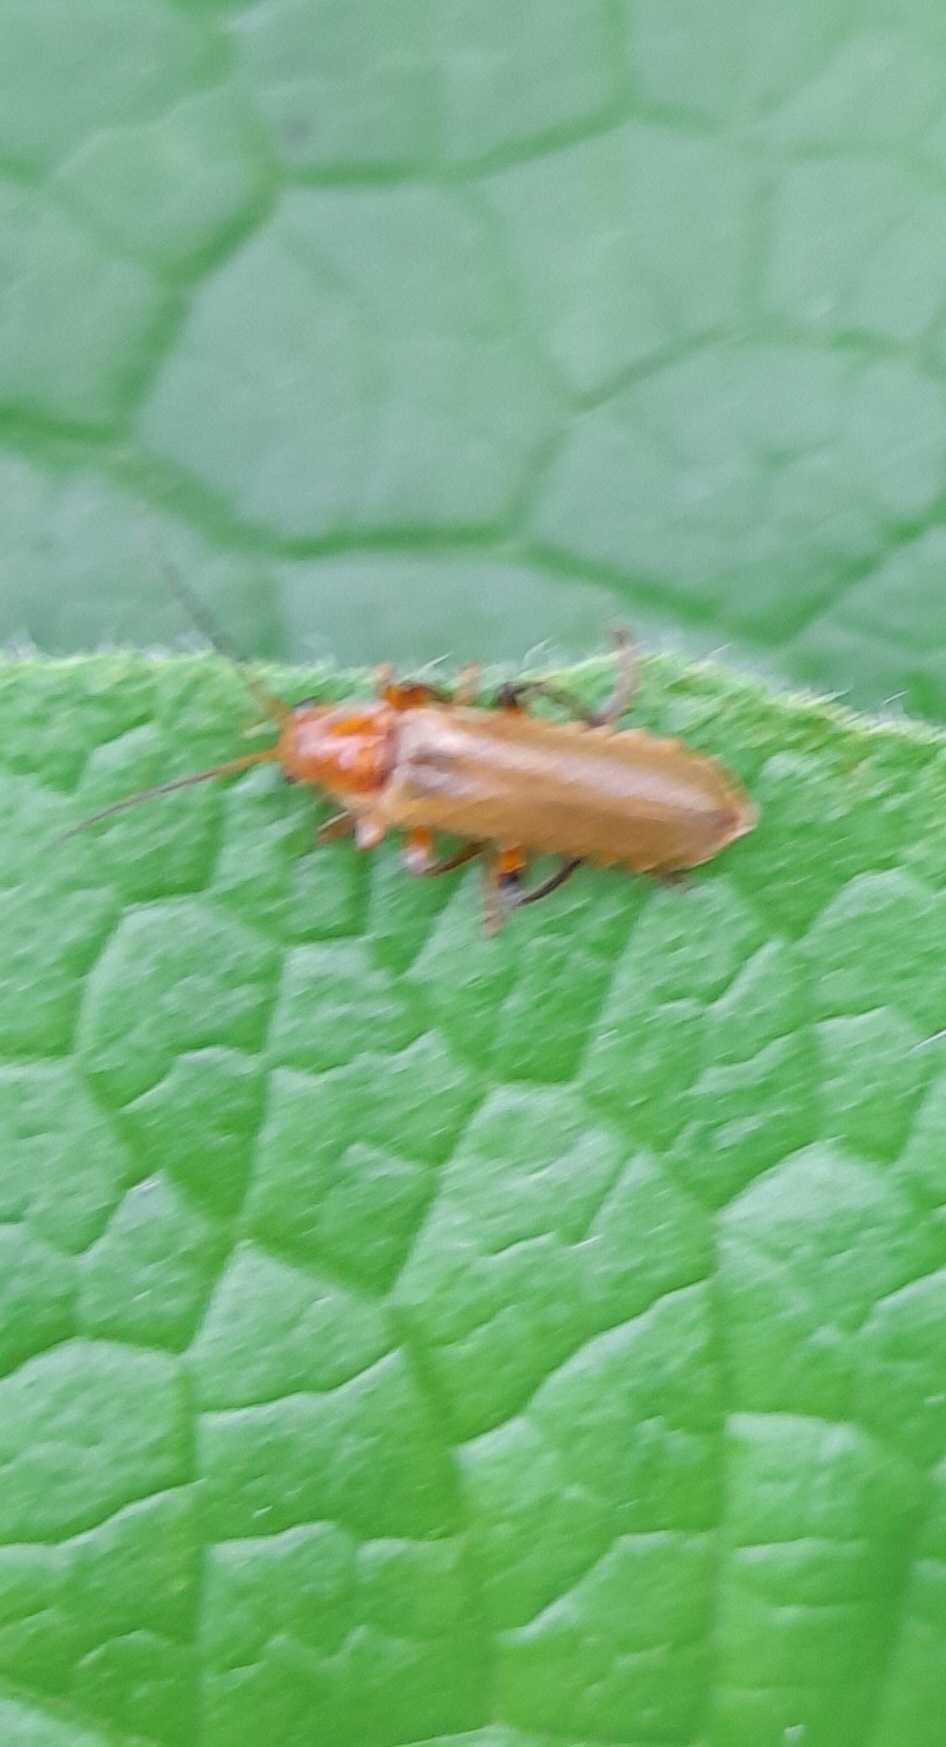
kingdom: Animalia
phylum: Arthropoda
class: Insecta
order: Coleoptera
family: Cantharidae
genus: Cantharis
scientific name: Cantharis livida
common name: Livid soldier beetle
